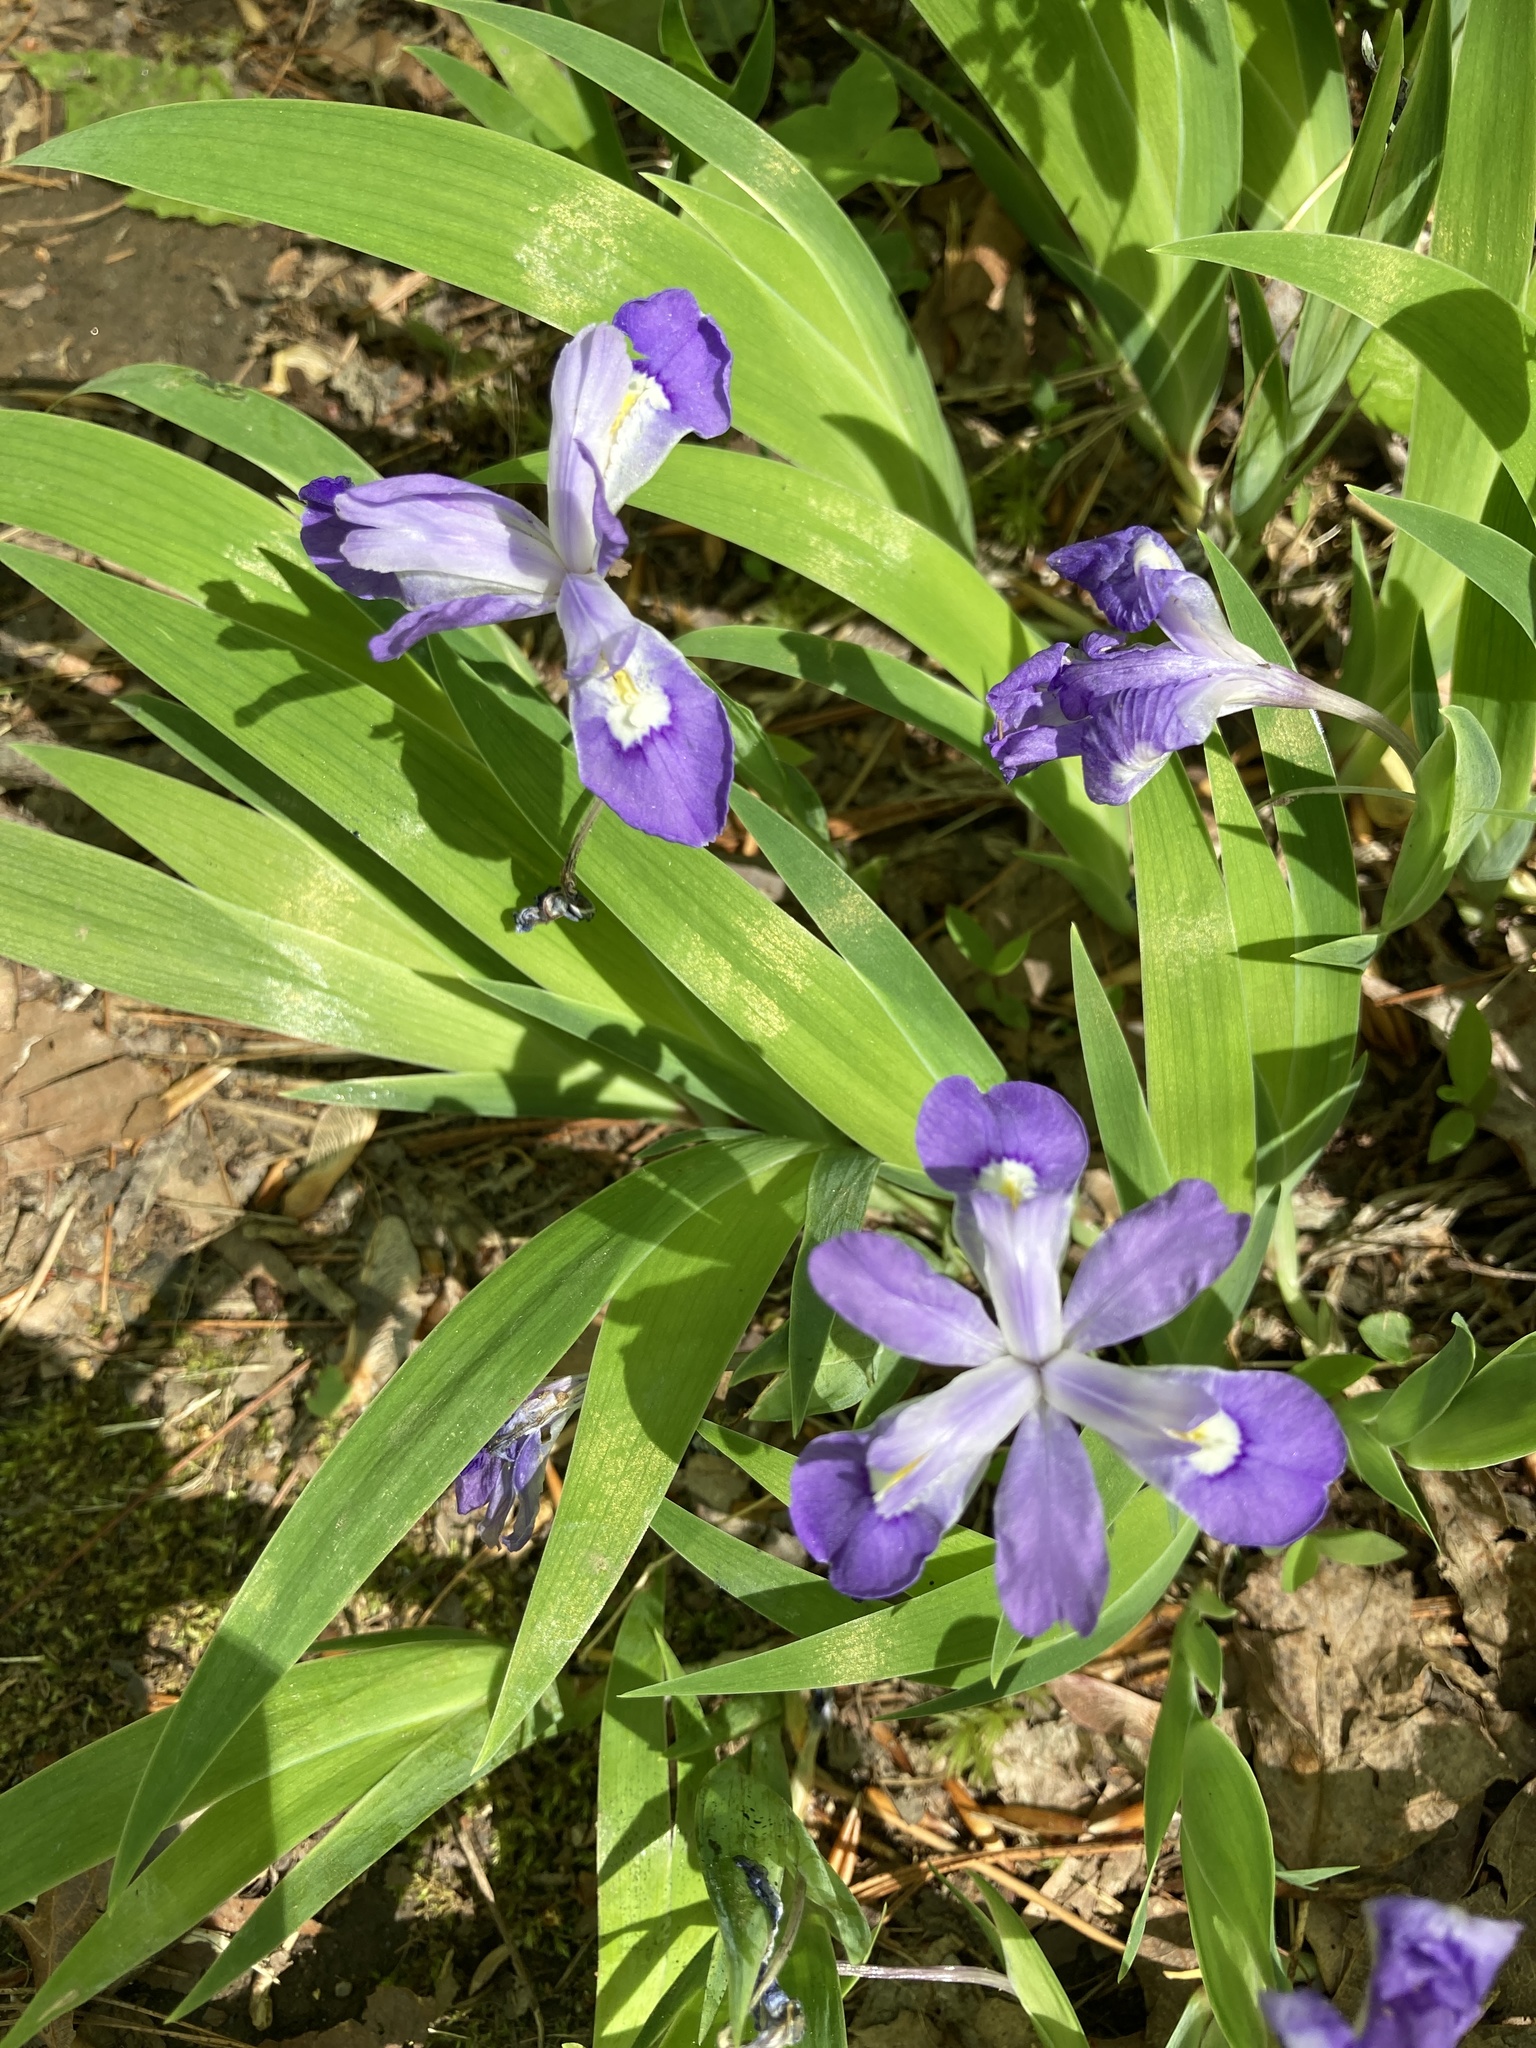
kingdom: Plantae
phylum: Tracheophyta
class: Liliopsida
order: Asparagales
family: Iridaceae
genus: Iris
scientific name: Iris cristata
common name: Crested iris
